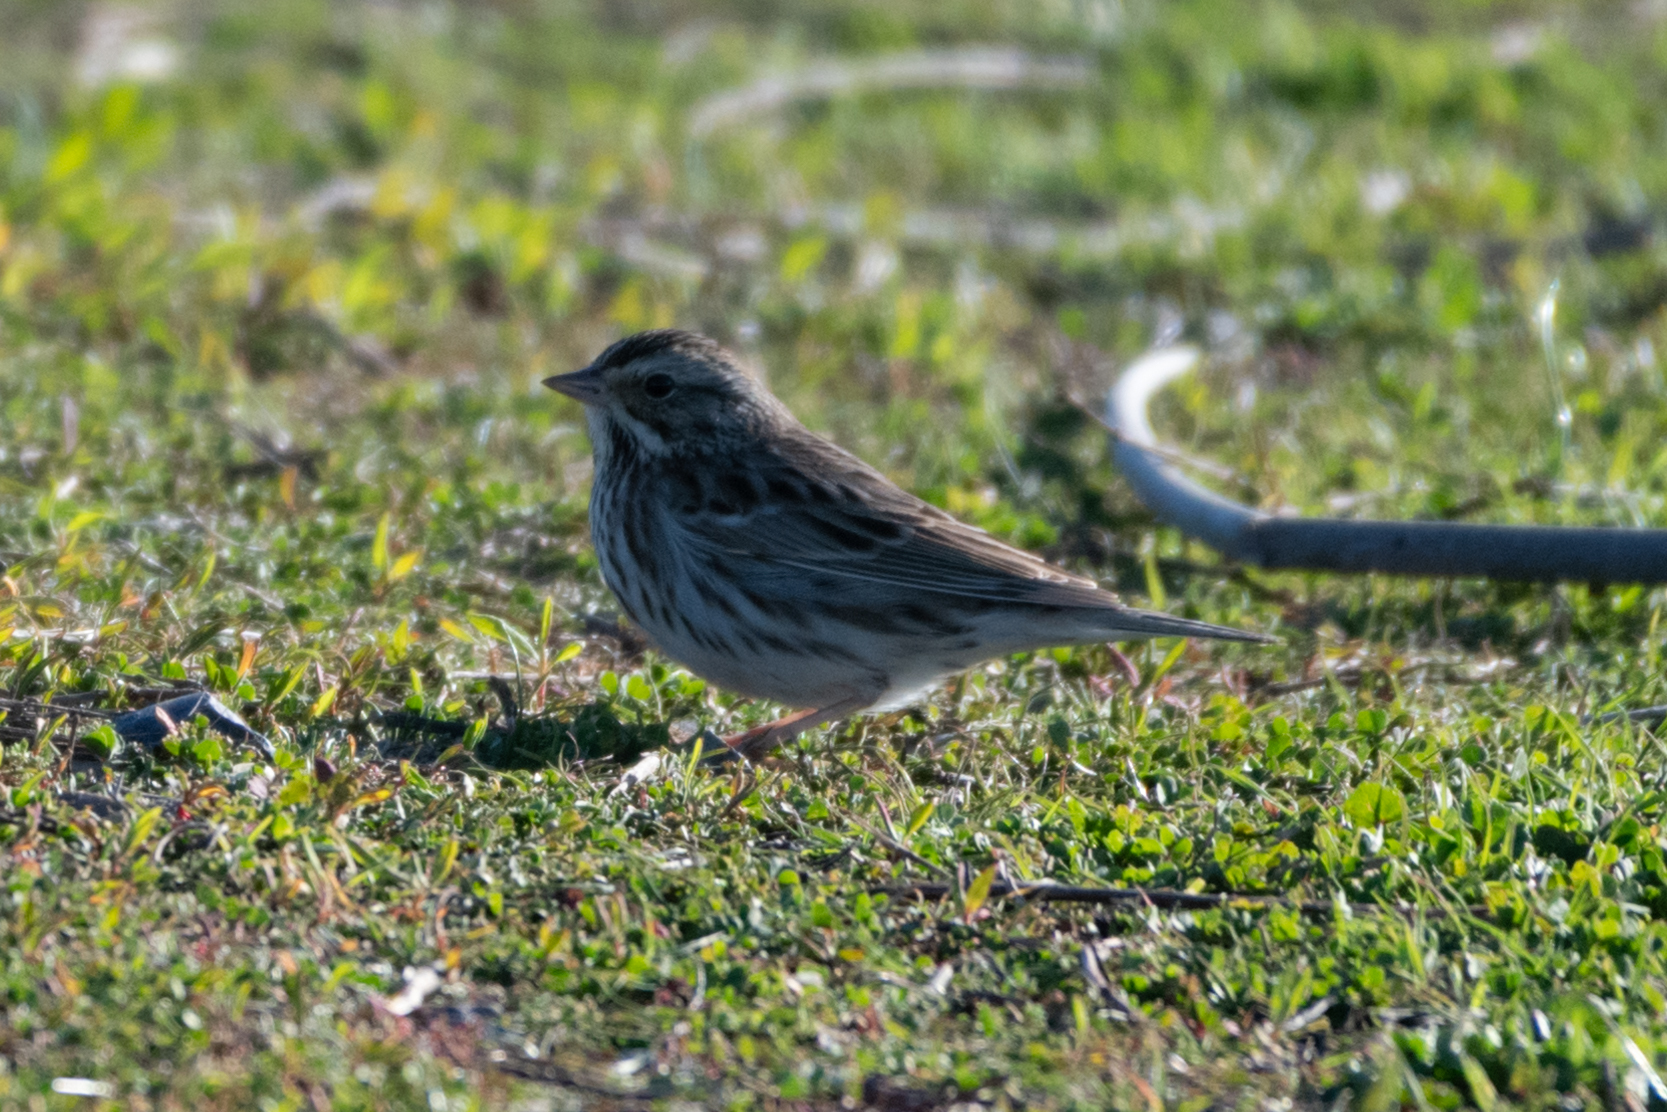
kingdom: Animalia
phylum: Chordata
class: Aves
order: Passeriformes
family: Passerellidae
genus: Passerculus
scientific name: Passerculus sandwichensis
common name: Savannah sparrow
